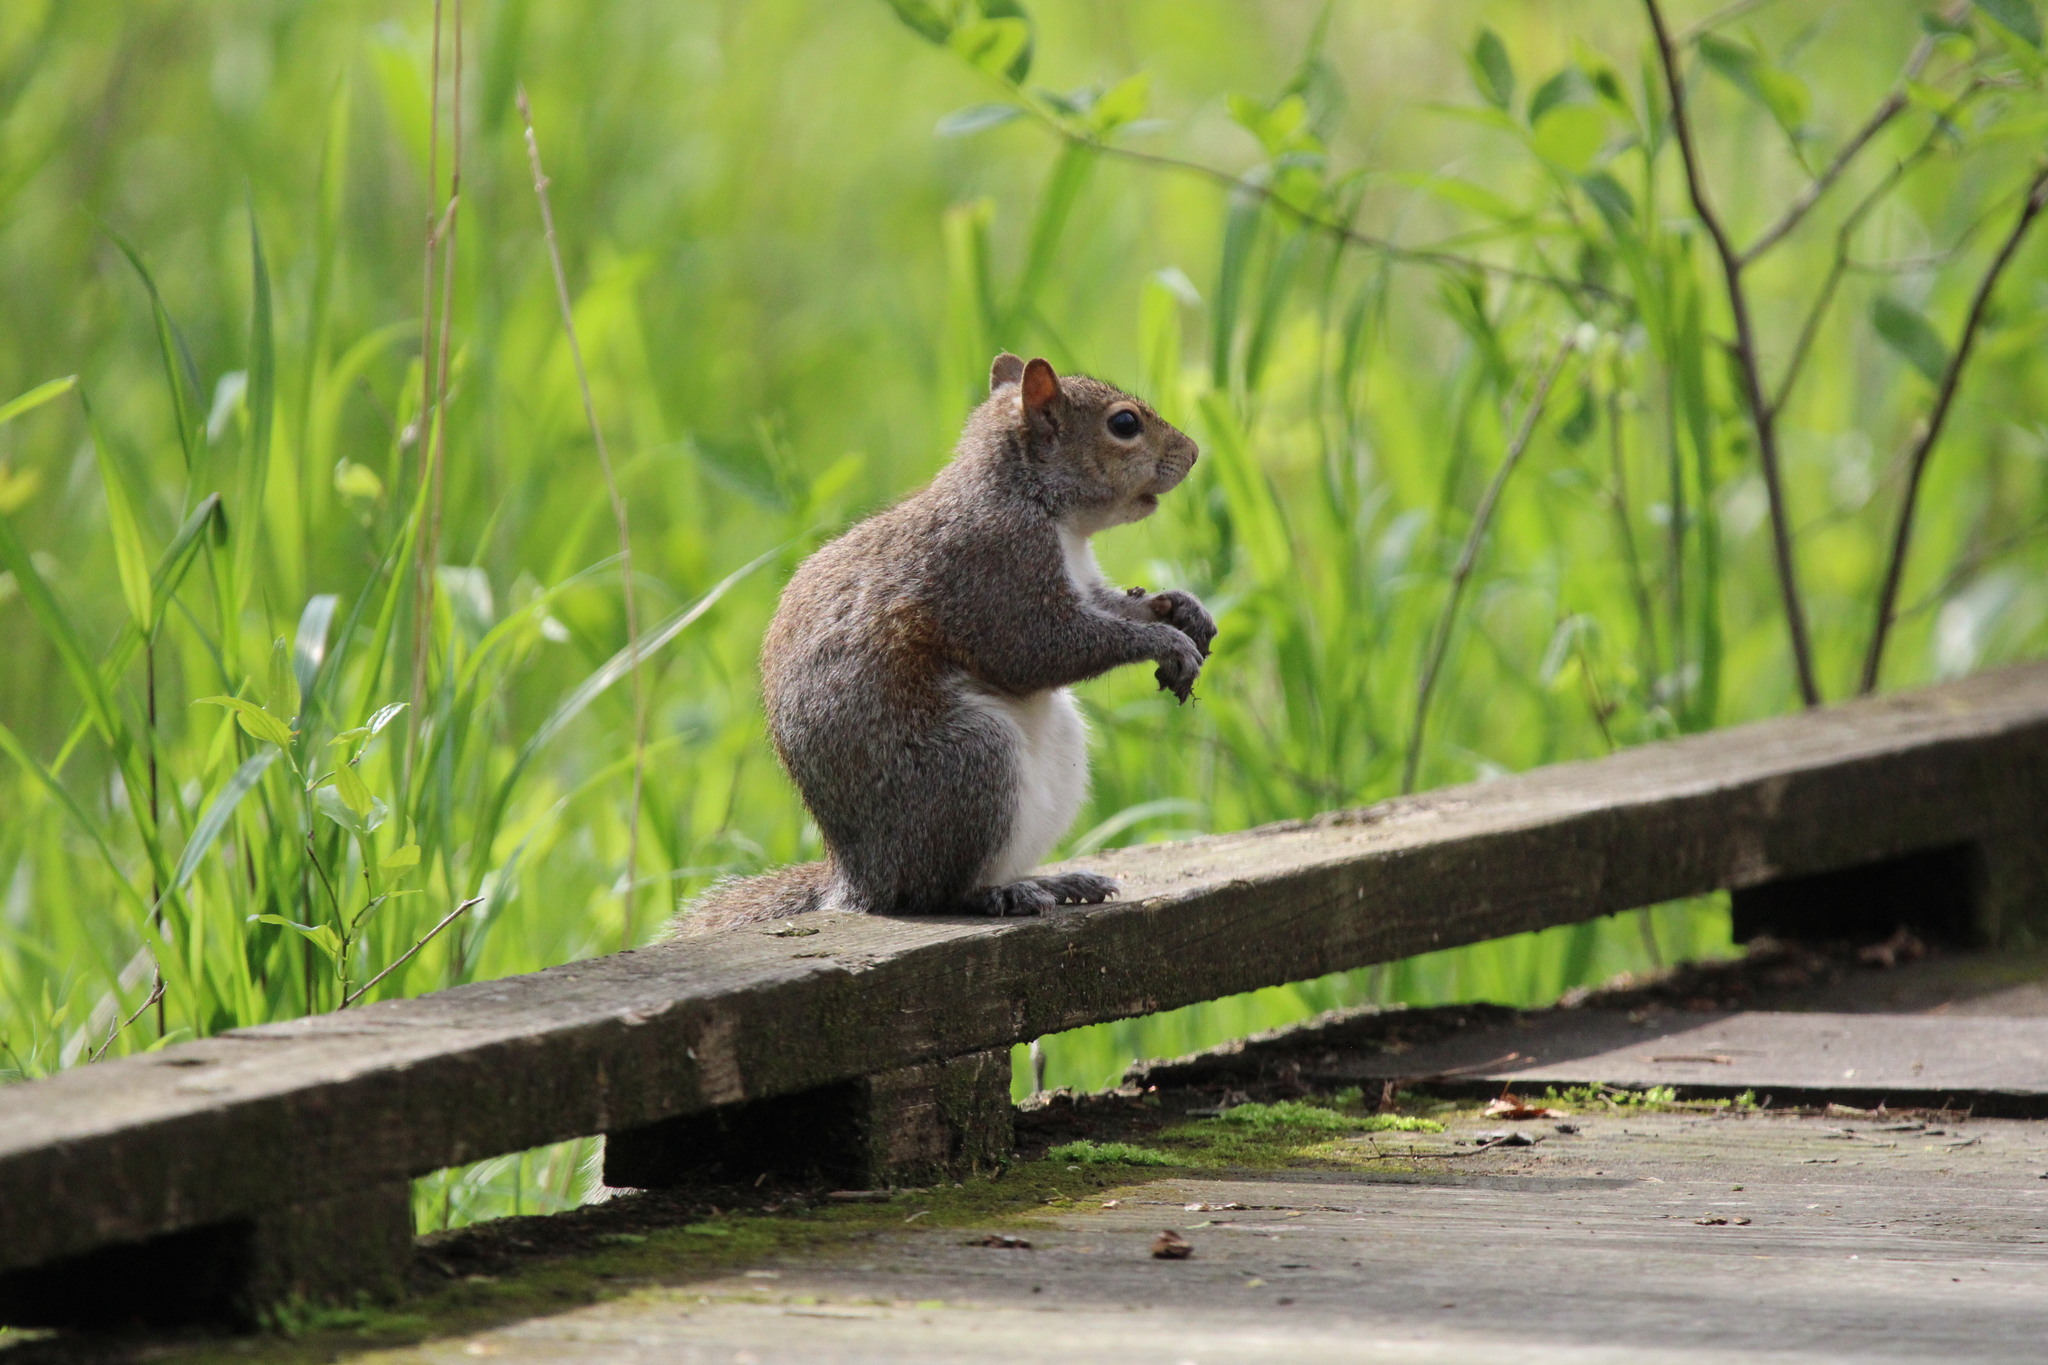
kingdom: Animalia
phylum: Chordata
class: Mammalia
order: Rodentia
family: Sciuridae
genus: Sciurus
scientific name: Sciurus carolinensis
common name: Eastern gray squirrel
